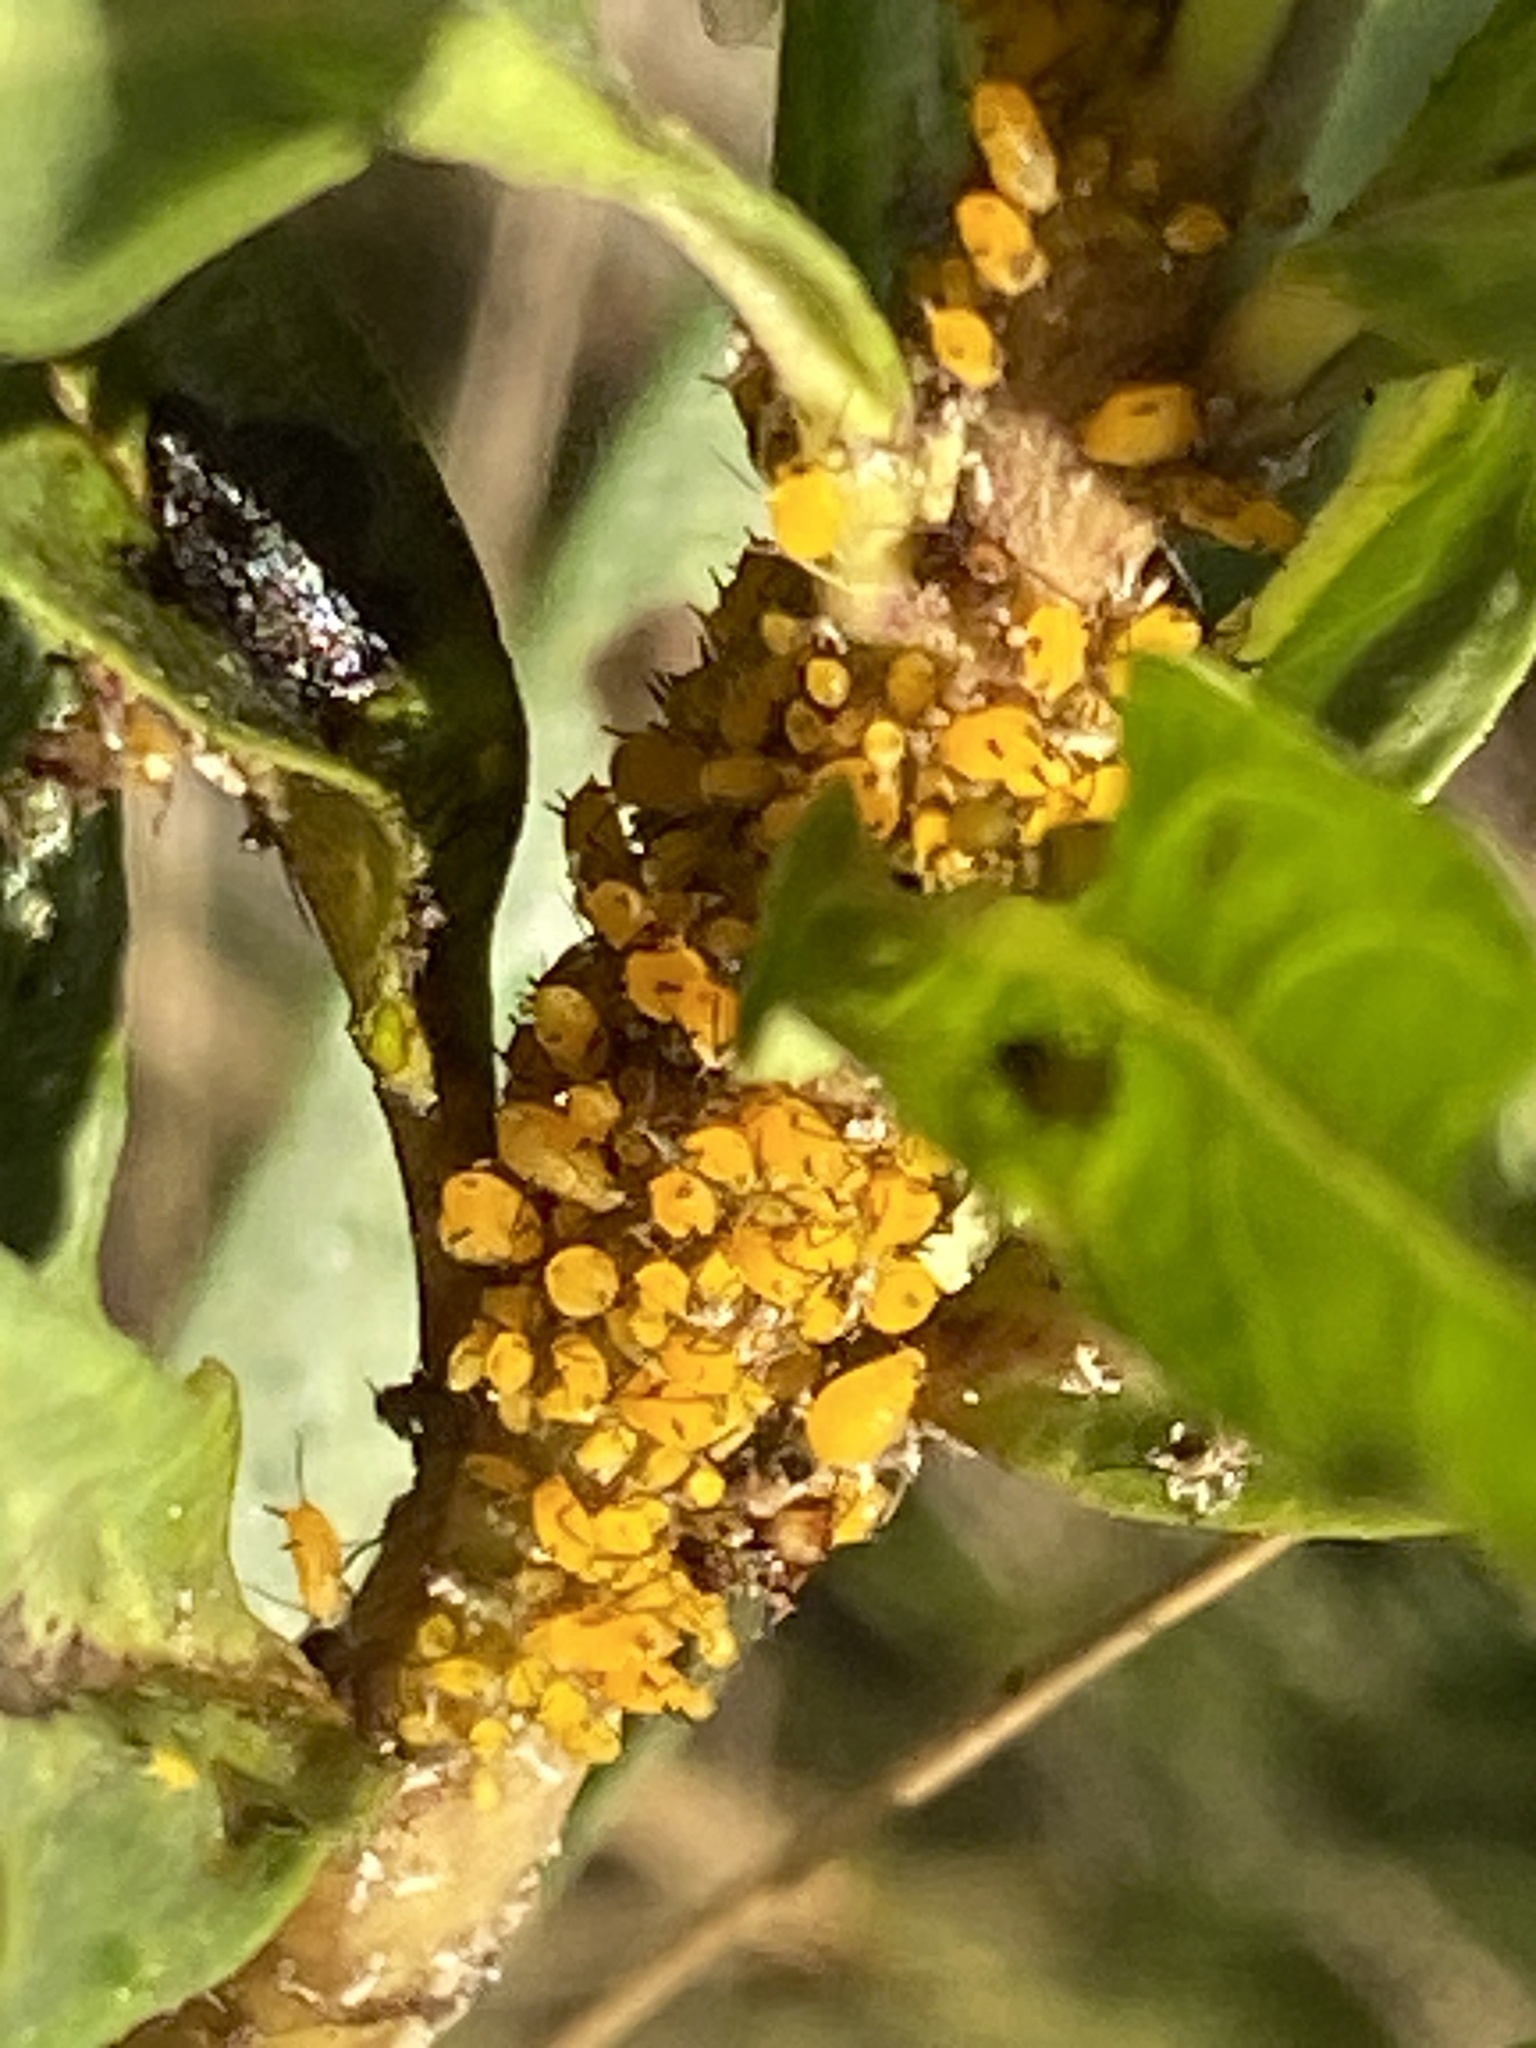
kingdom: Animalia
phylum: Arthropoda
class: Insecta
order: Hemiptera
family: Aphididae
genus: Aphis
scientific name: Aphis nerii
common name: Oleander aphid
